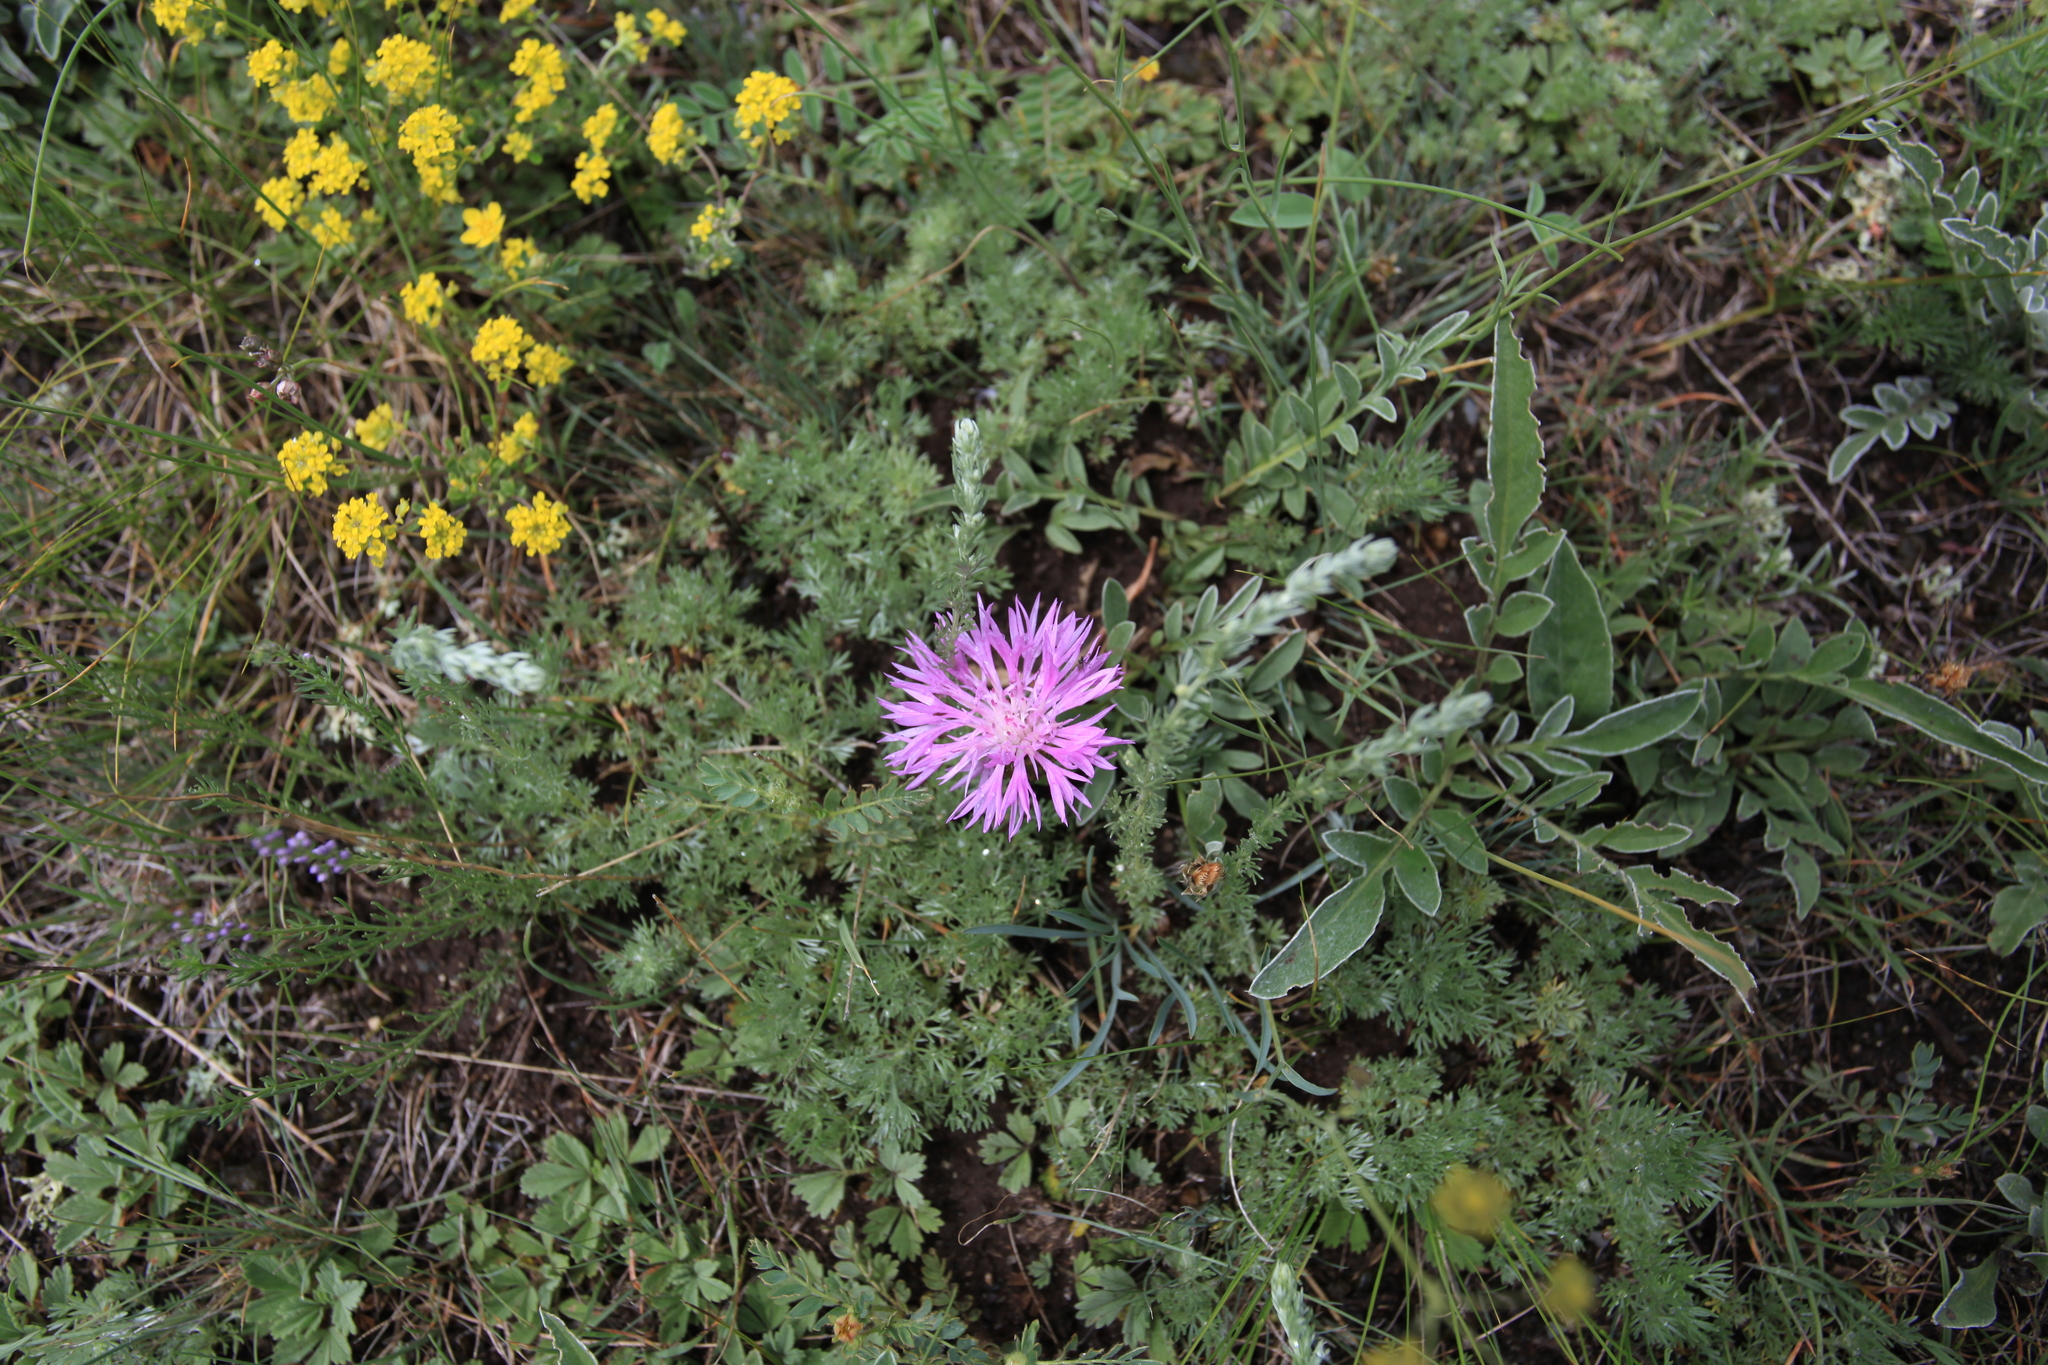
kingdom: Plantae
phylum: Tracheophyta
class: Magnoliopsida
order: Asterales
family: Asteraceae
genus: Psephellus
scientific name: Psephellus sibiricus
